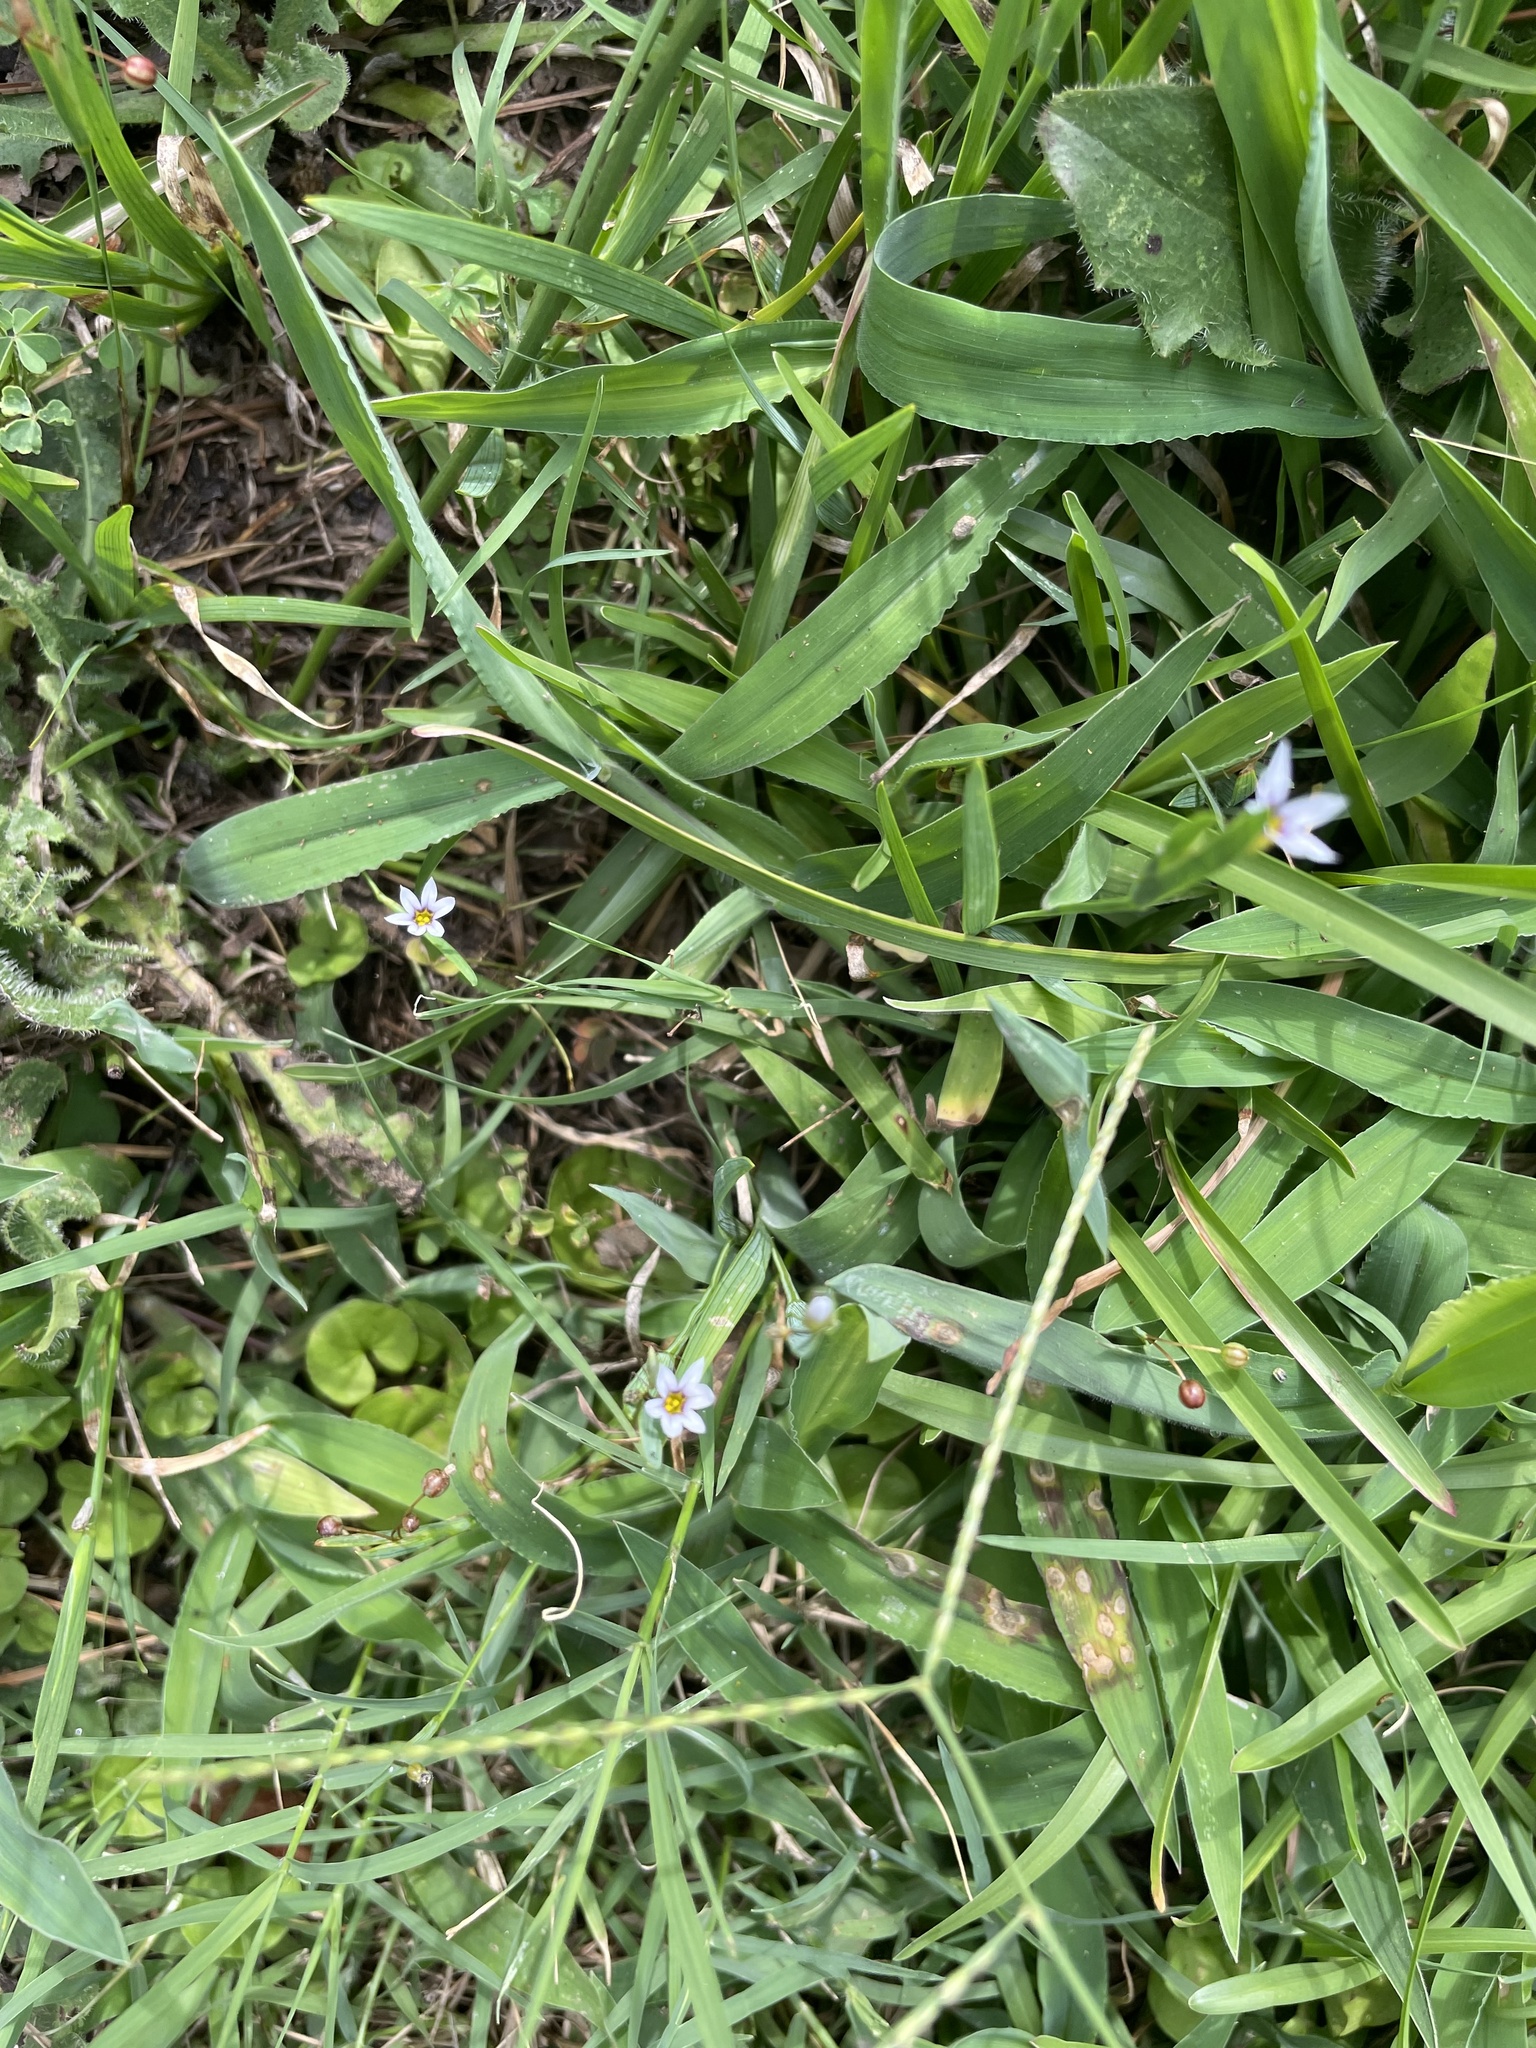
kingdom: Plantae
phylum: Tracheophyta
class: Liliopsida
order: Asparagales
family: Iridaceae
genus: Sisyrinchium
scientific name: Sisyrinchium micranthum
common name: Bermuda pigroot
